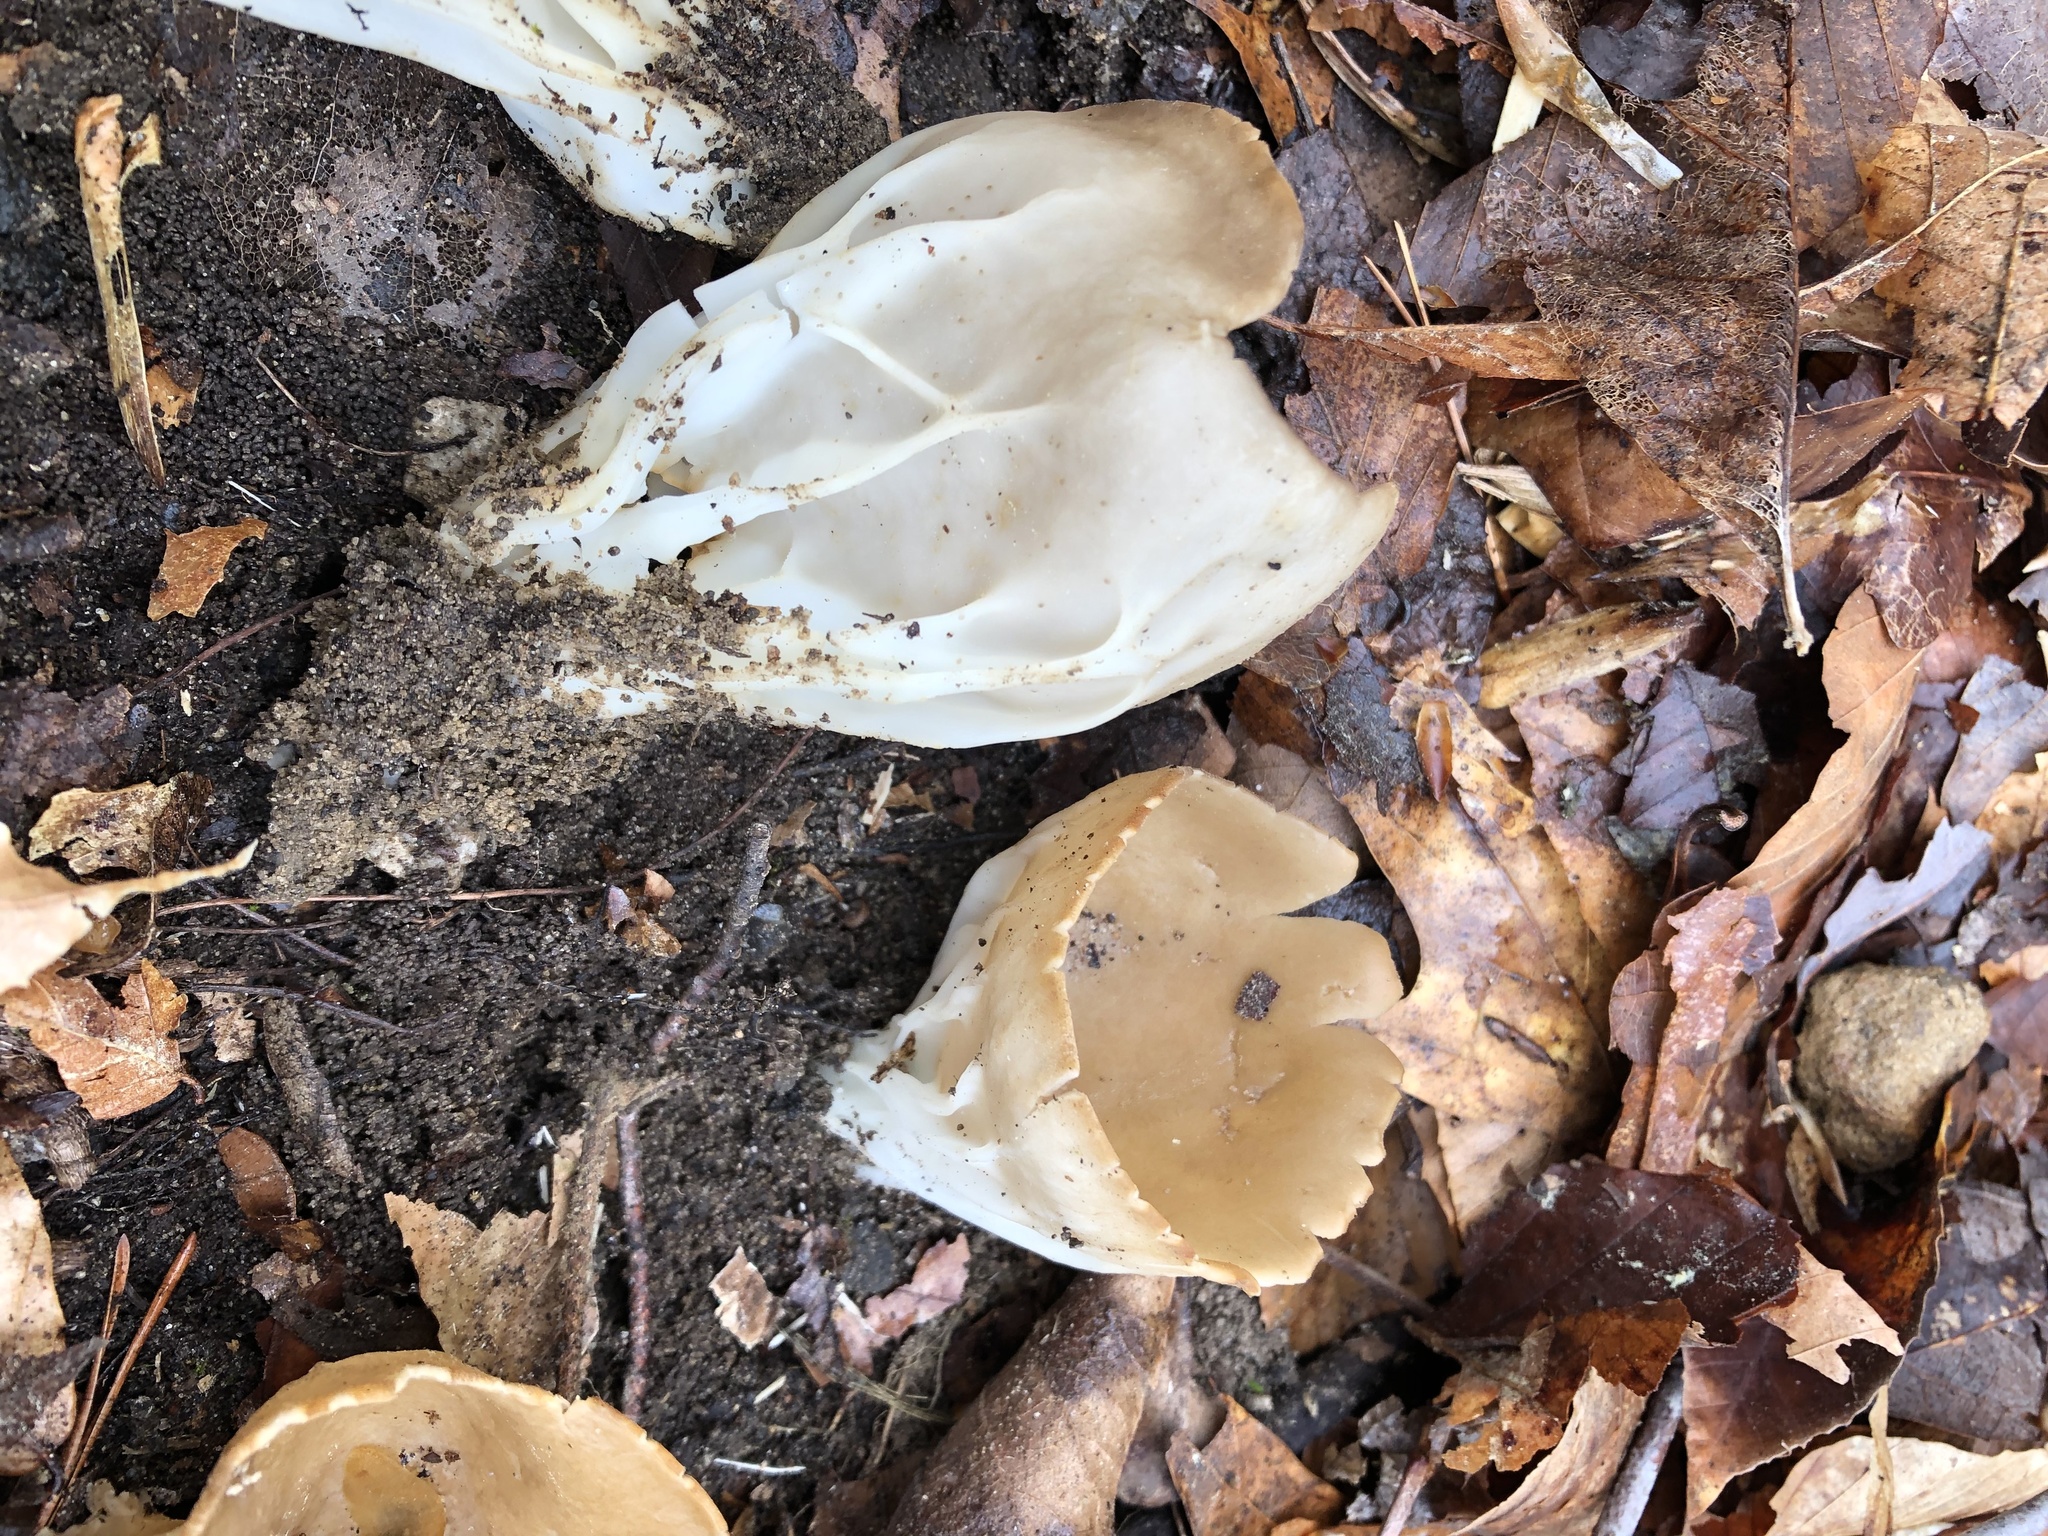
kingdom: Fungi
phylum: Ascomycota
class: Pezizomycetes
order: Pezizales
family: Helvellaceae
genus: Helvella
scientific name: Helvella acetabulum
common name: Vinegar cup
